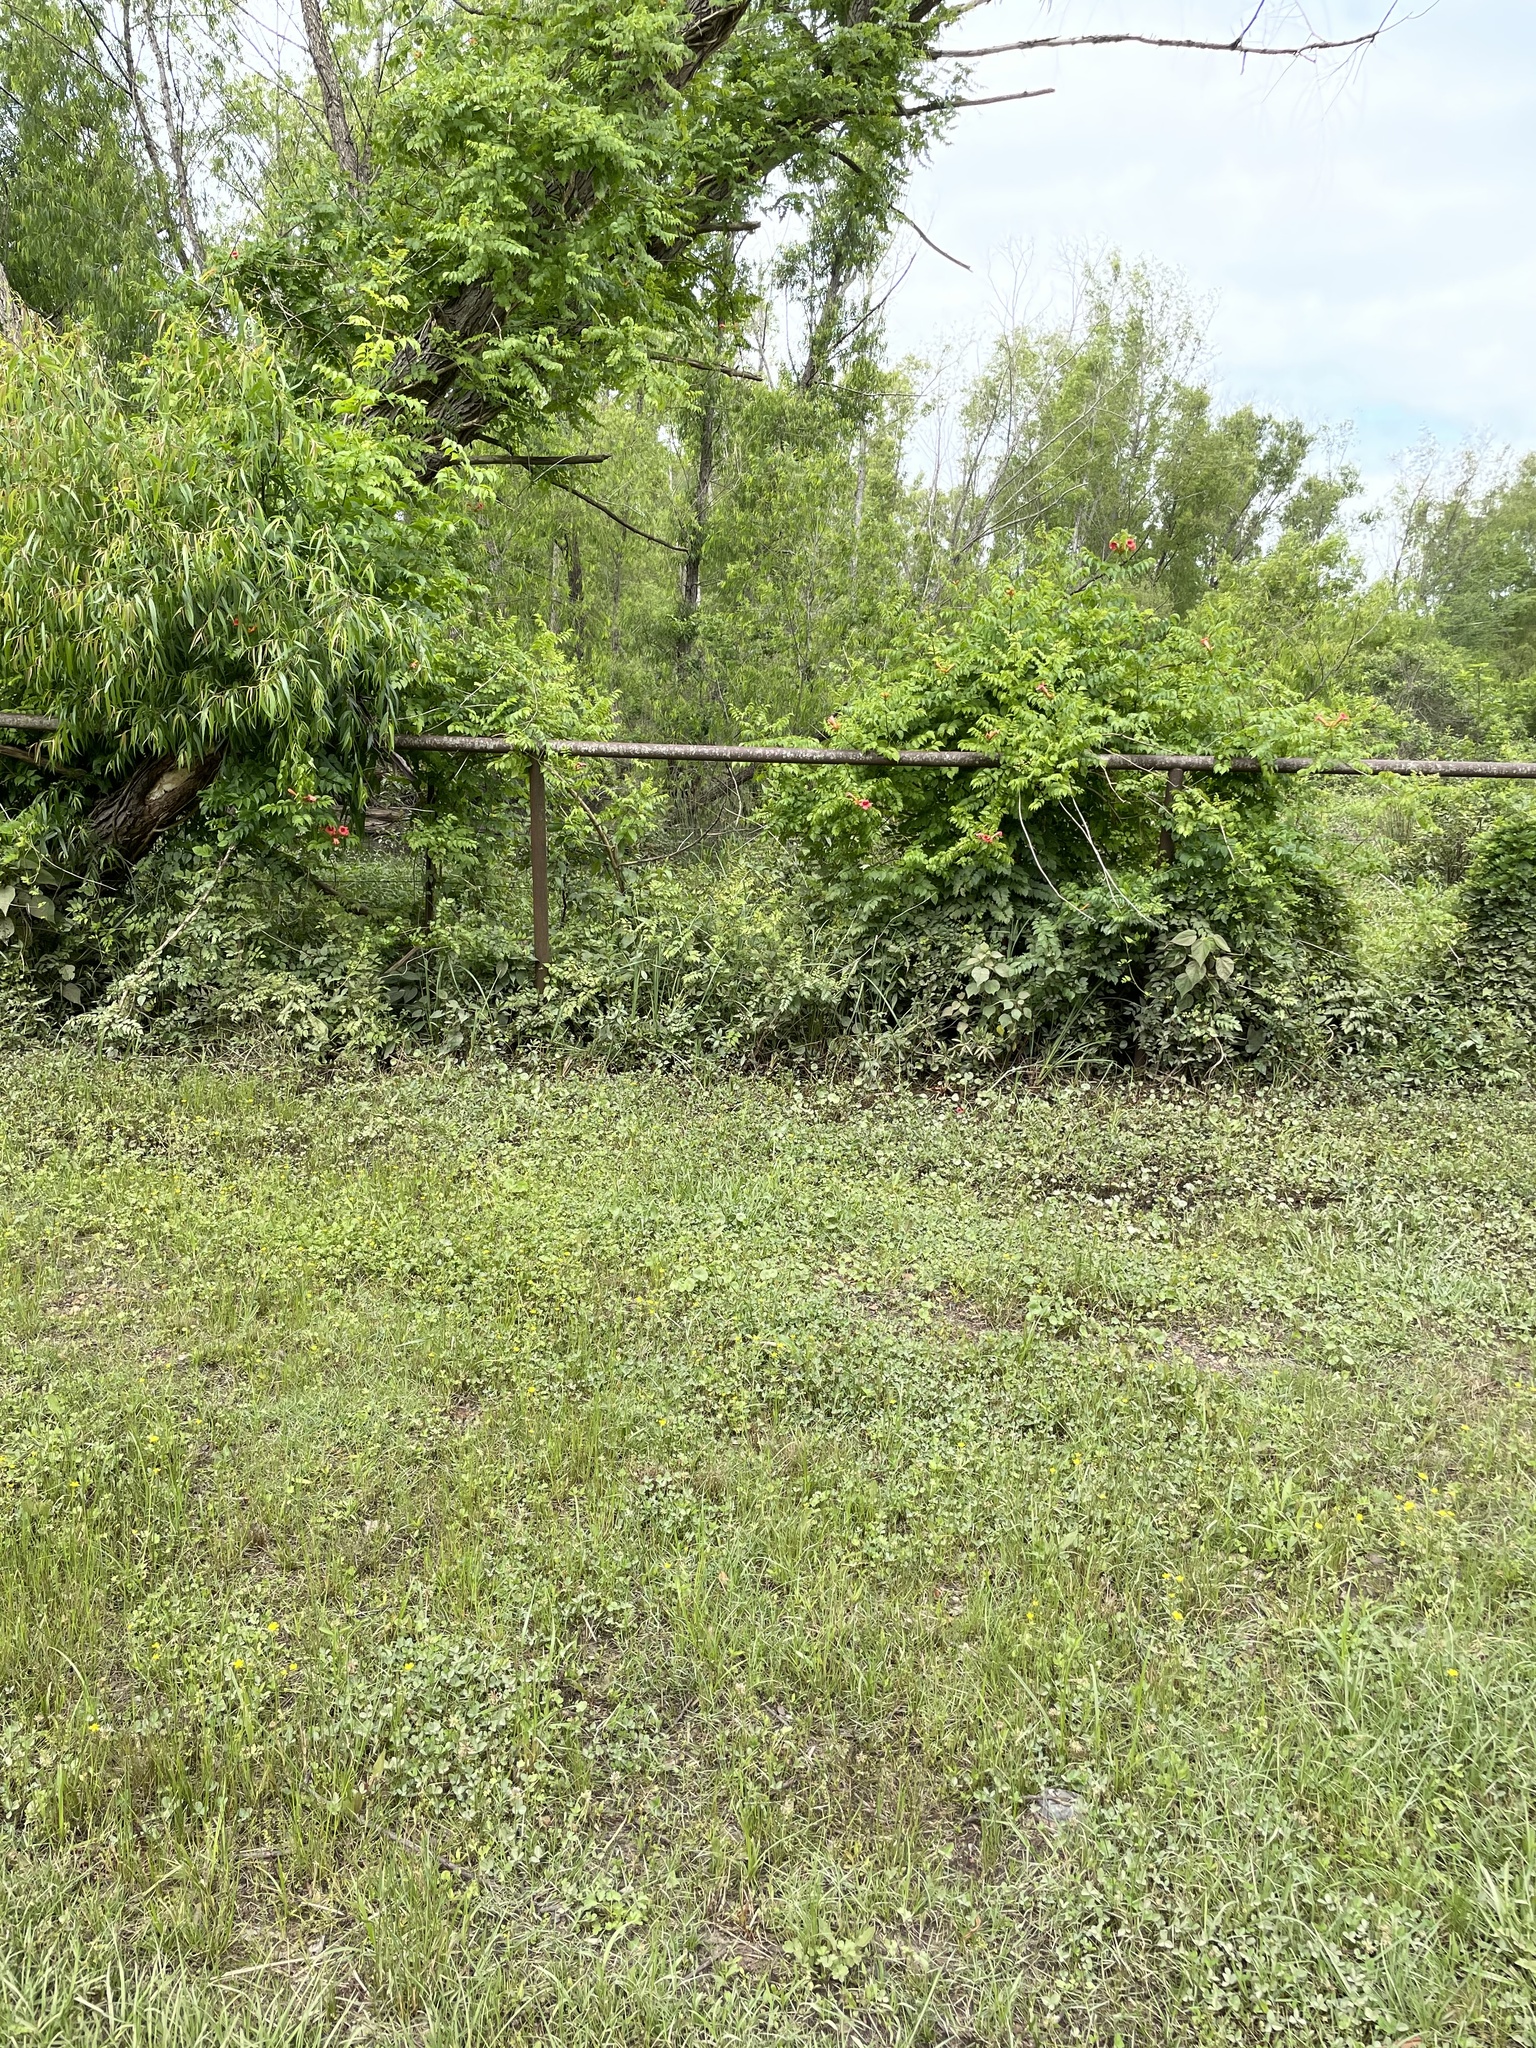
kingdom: Plantae
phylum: Tracheophyta
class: Magnoliopsida
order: Lamiales
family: Bignoniaceae
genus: Campsis
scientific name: Campsis radicans
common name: Trumpet-creeper
